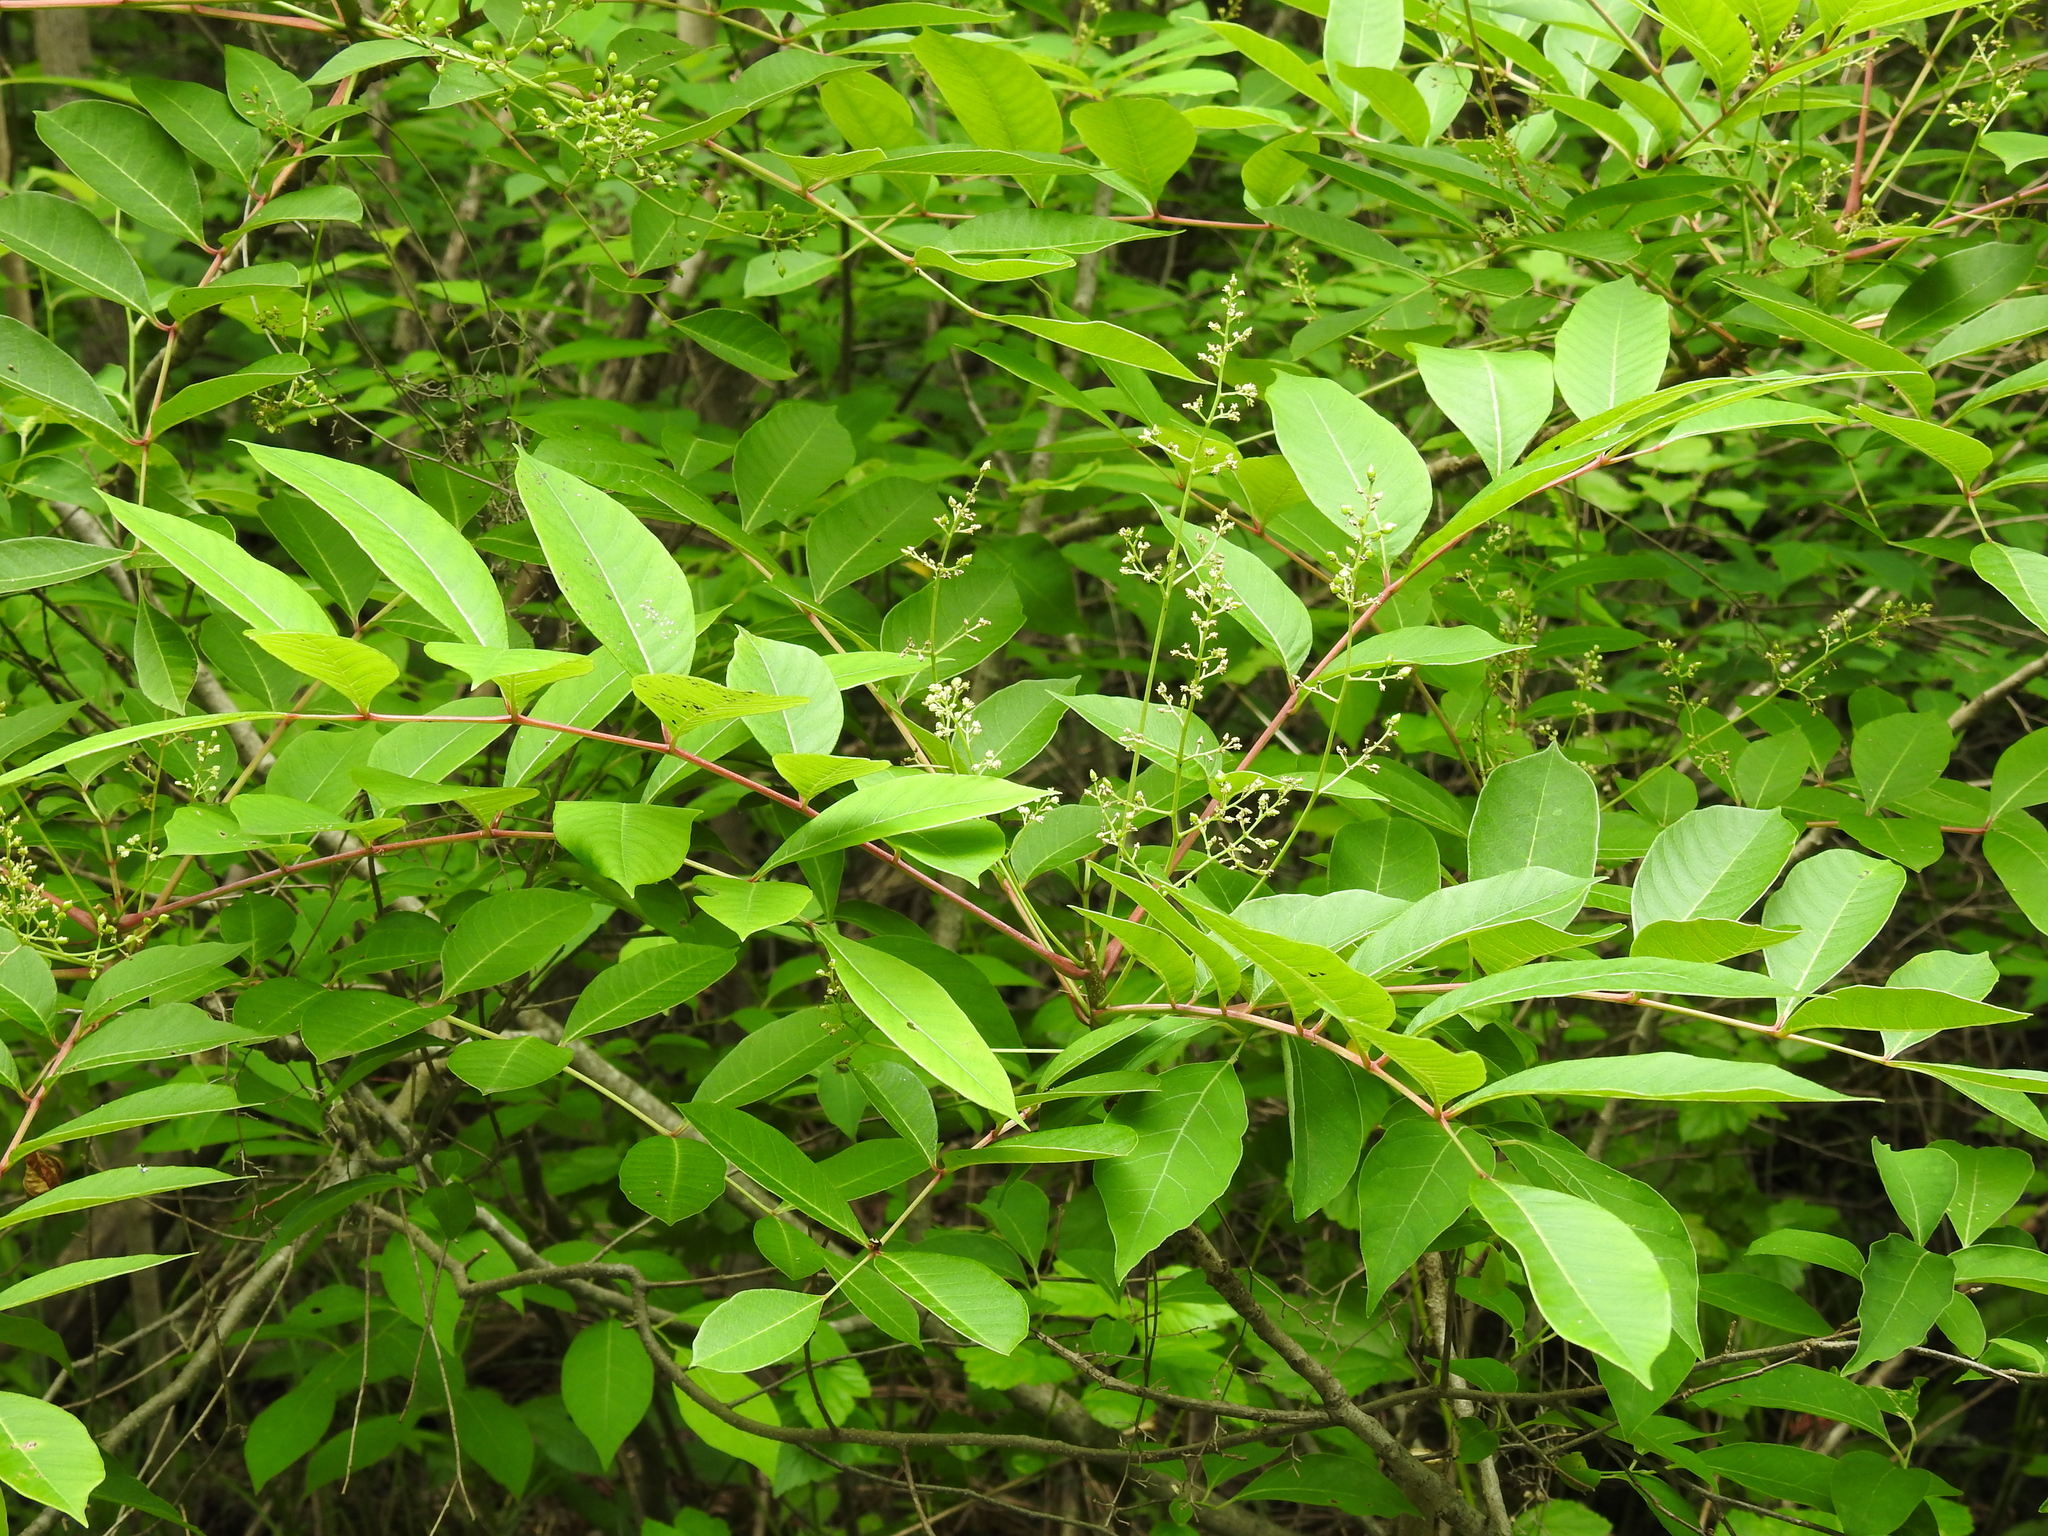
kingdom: Plantae
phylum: Tracheophyta
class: Magnoliopsida
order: Sapindales
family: Anacardiaceae
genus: Toxicodendron
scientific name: Toxicodendron vernix
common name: Poison sumac
